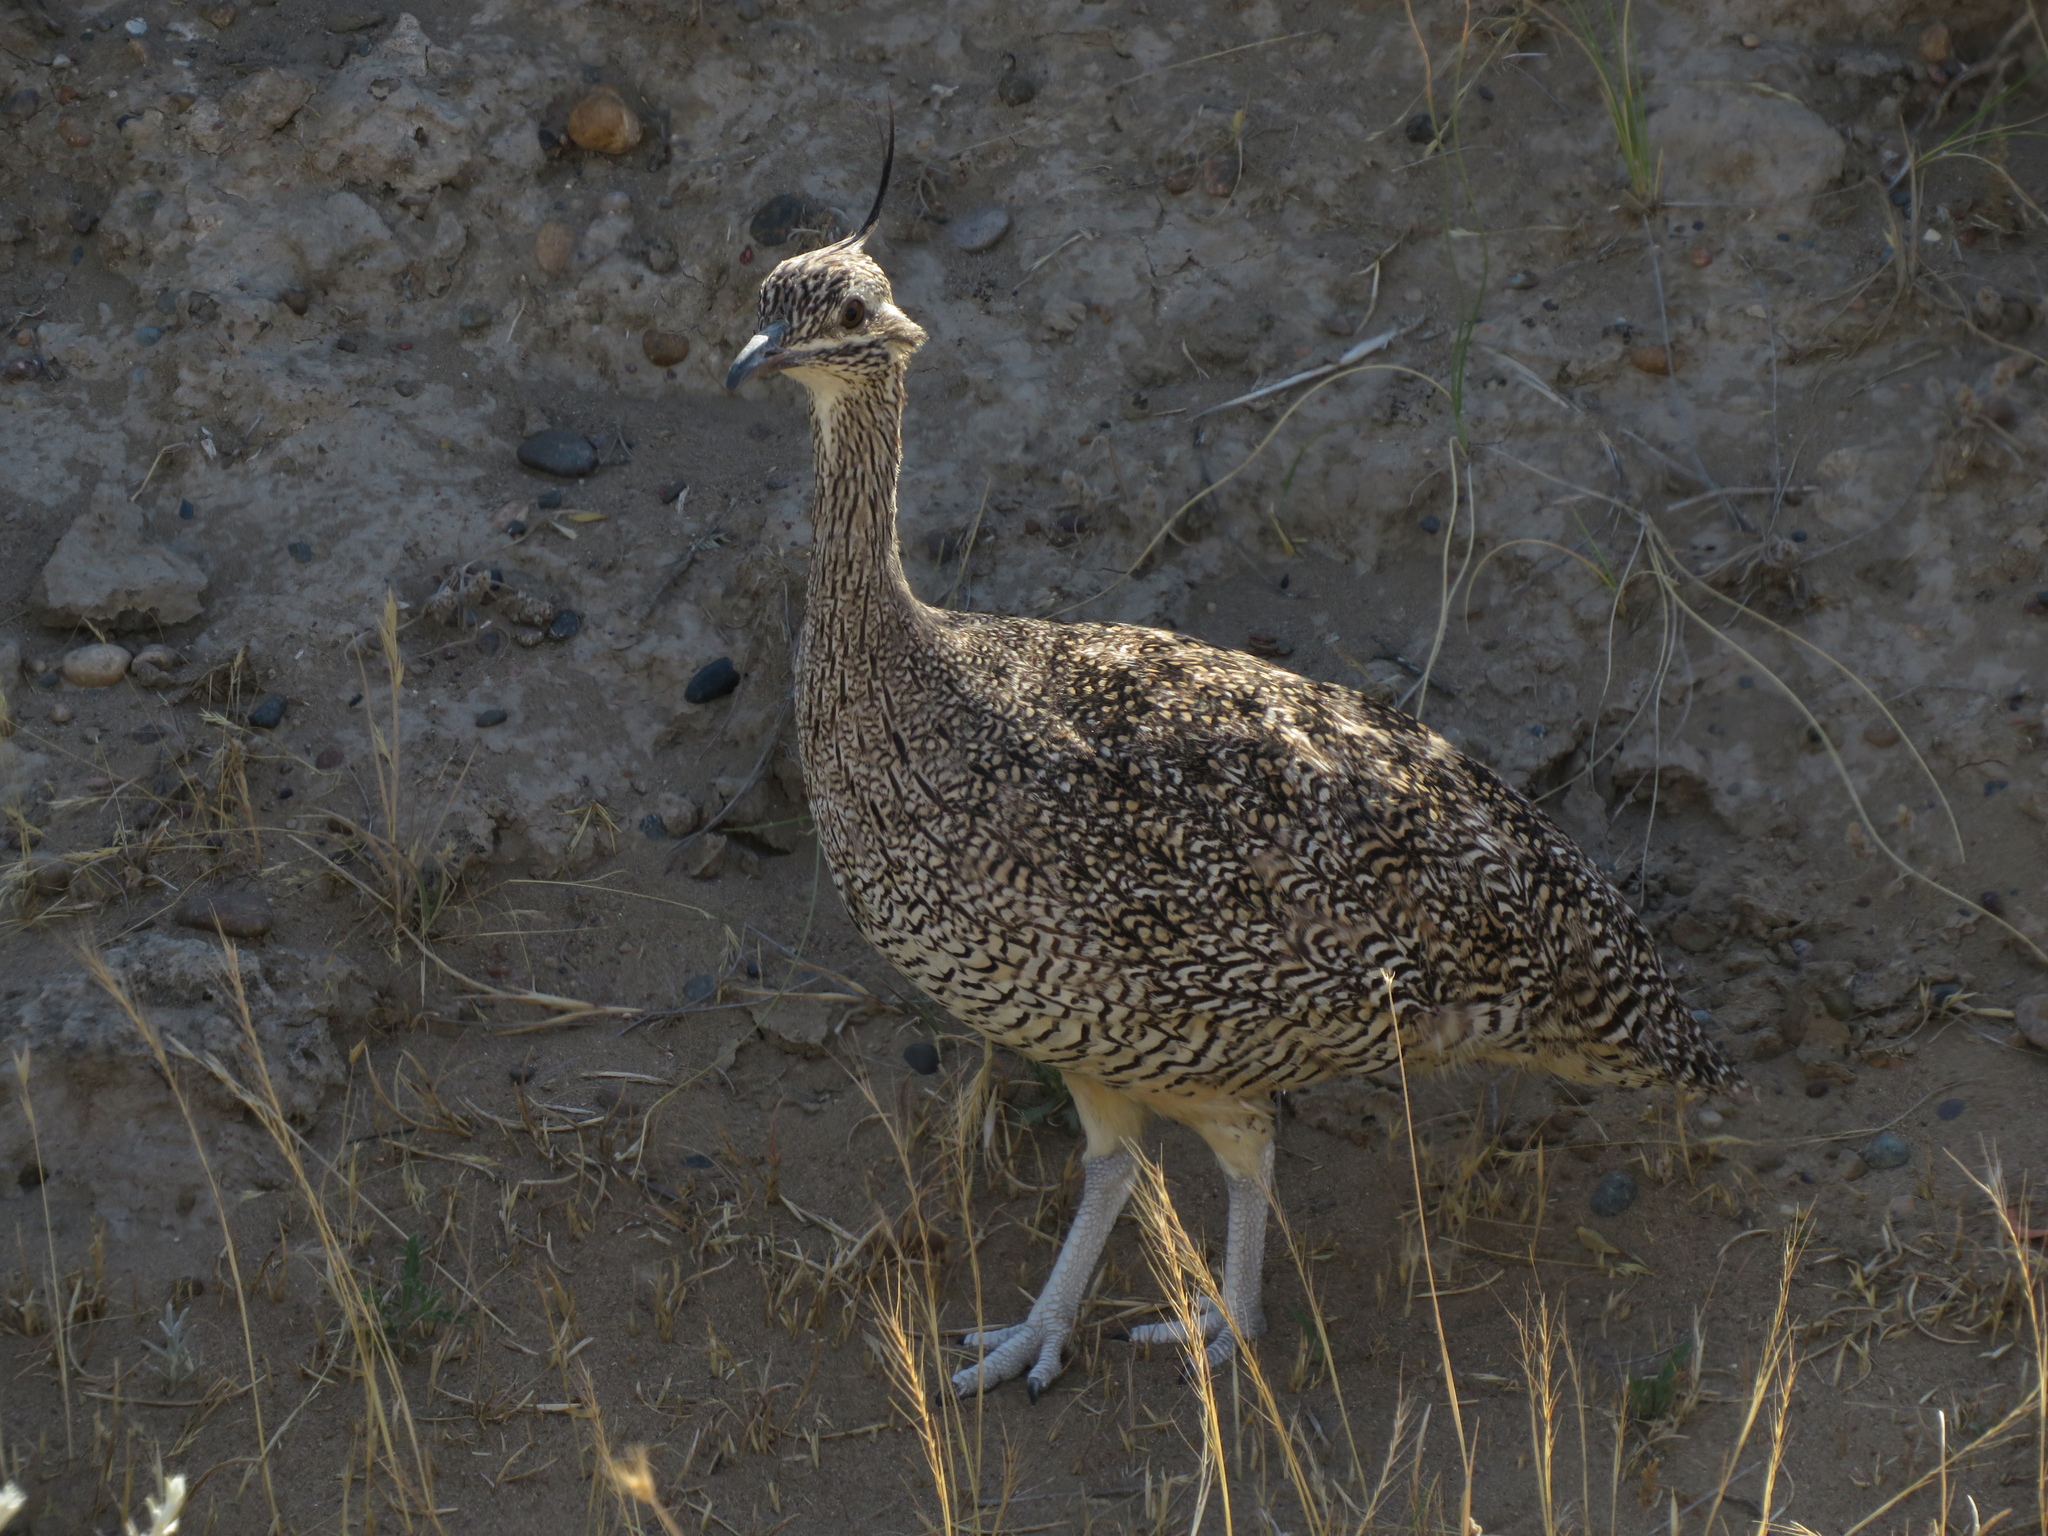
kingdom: Animalia
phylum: Chordata
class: Aves
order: Tinamiformes
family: Tinamidae
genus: Eudromia
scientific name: Eudromia elegans
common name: Elegant crested tinamou
